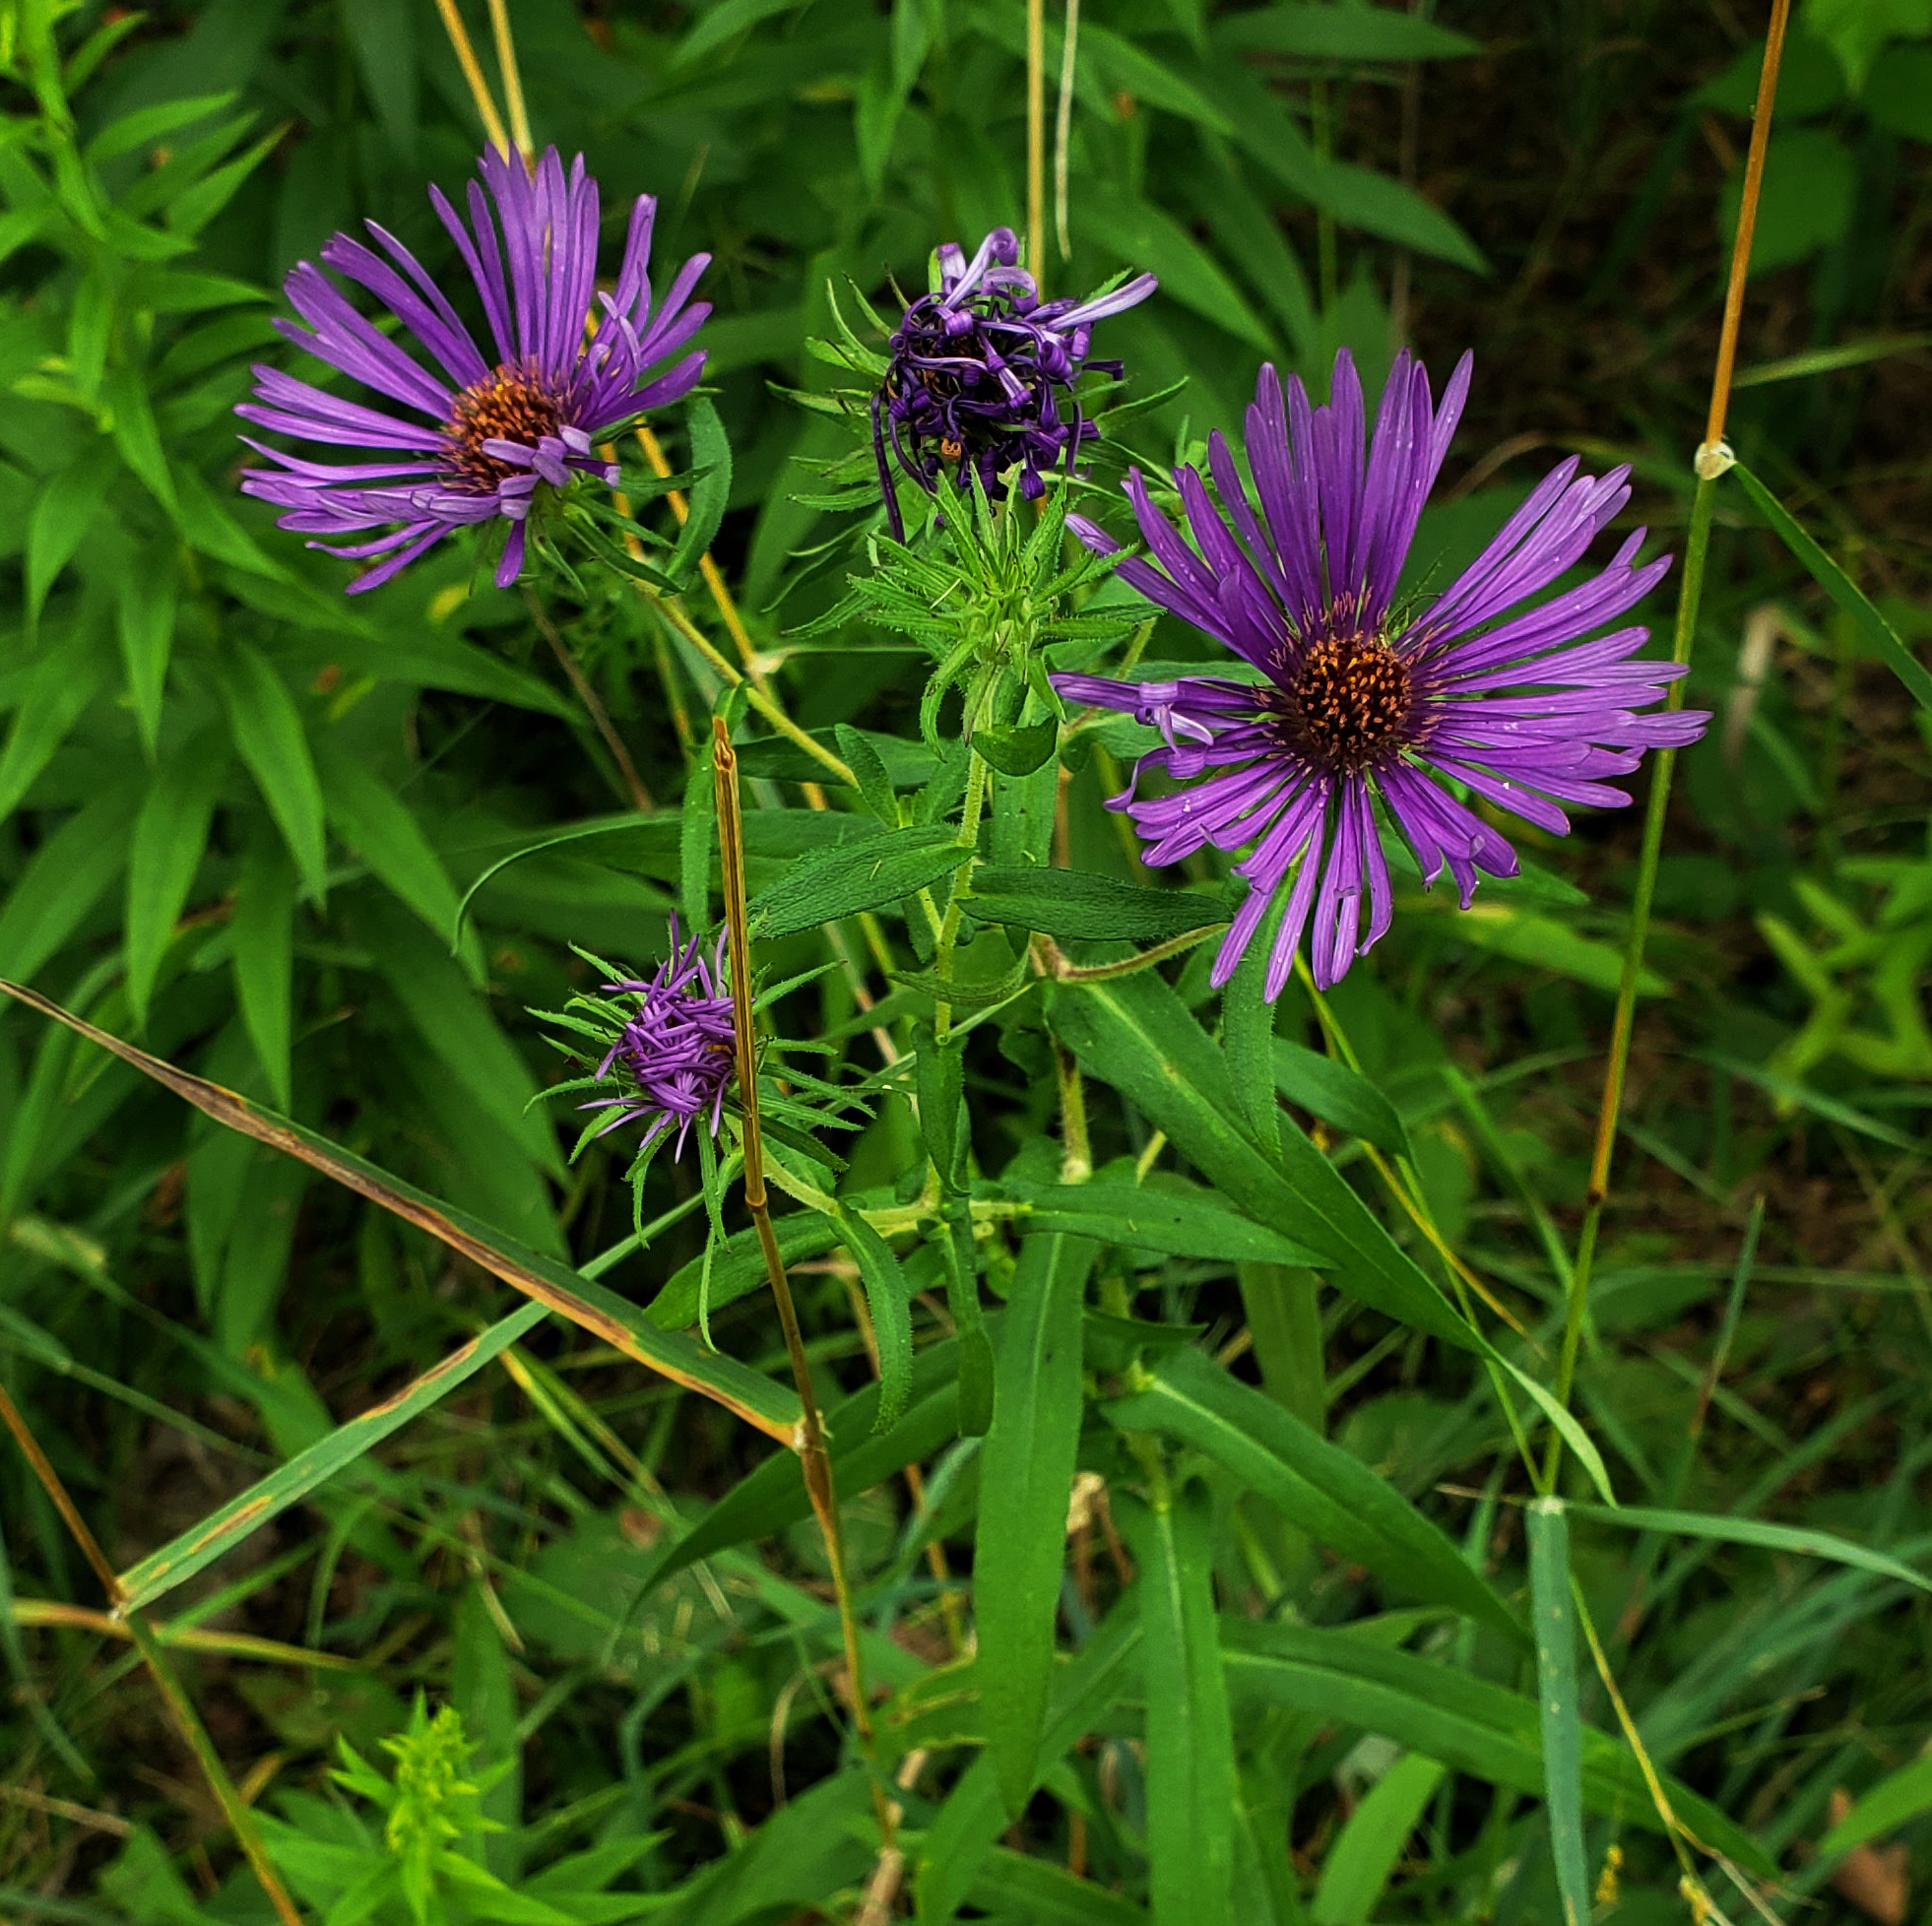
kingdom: Plantae
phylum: Tracheophyta
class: Magnoliopsida
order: Asterales
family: Asteraceae
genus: Symphyotrichum
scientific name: Symphyotrichum novae-angliae
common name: Michaelmas daisy
